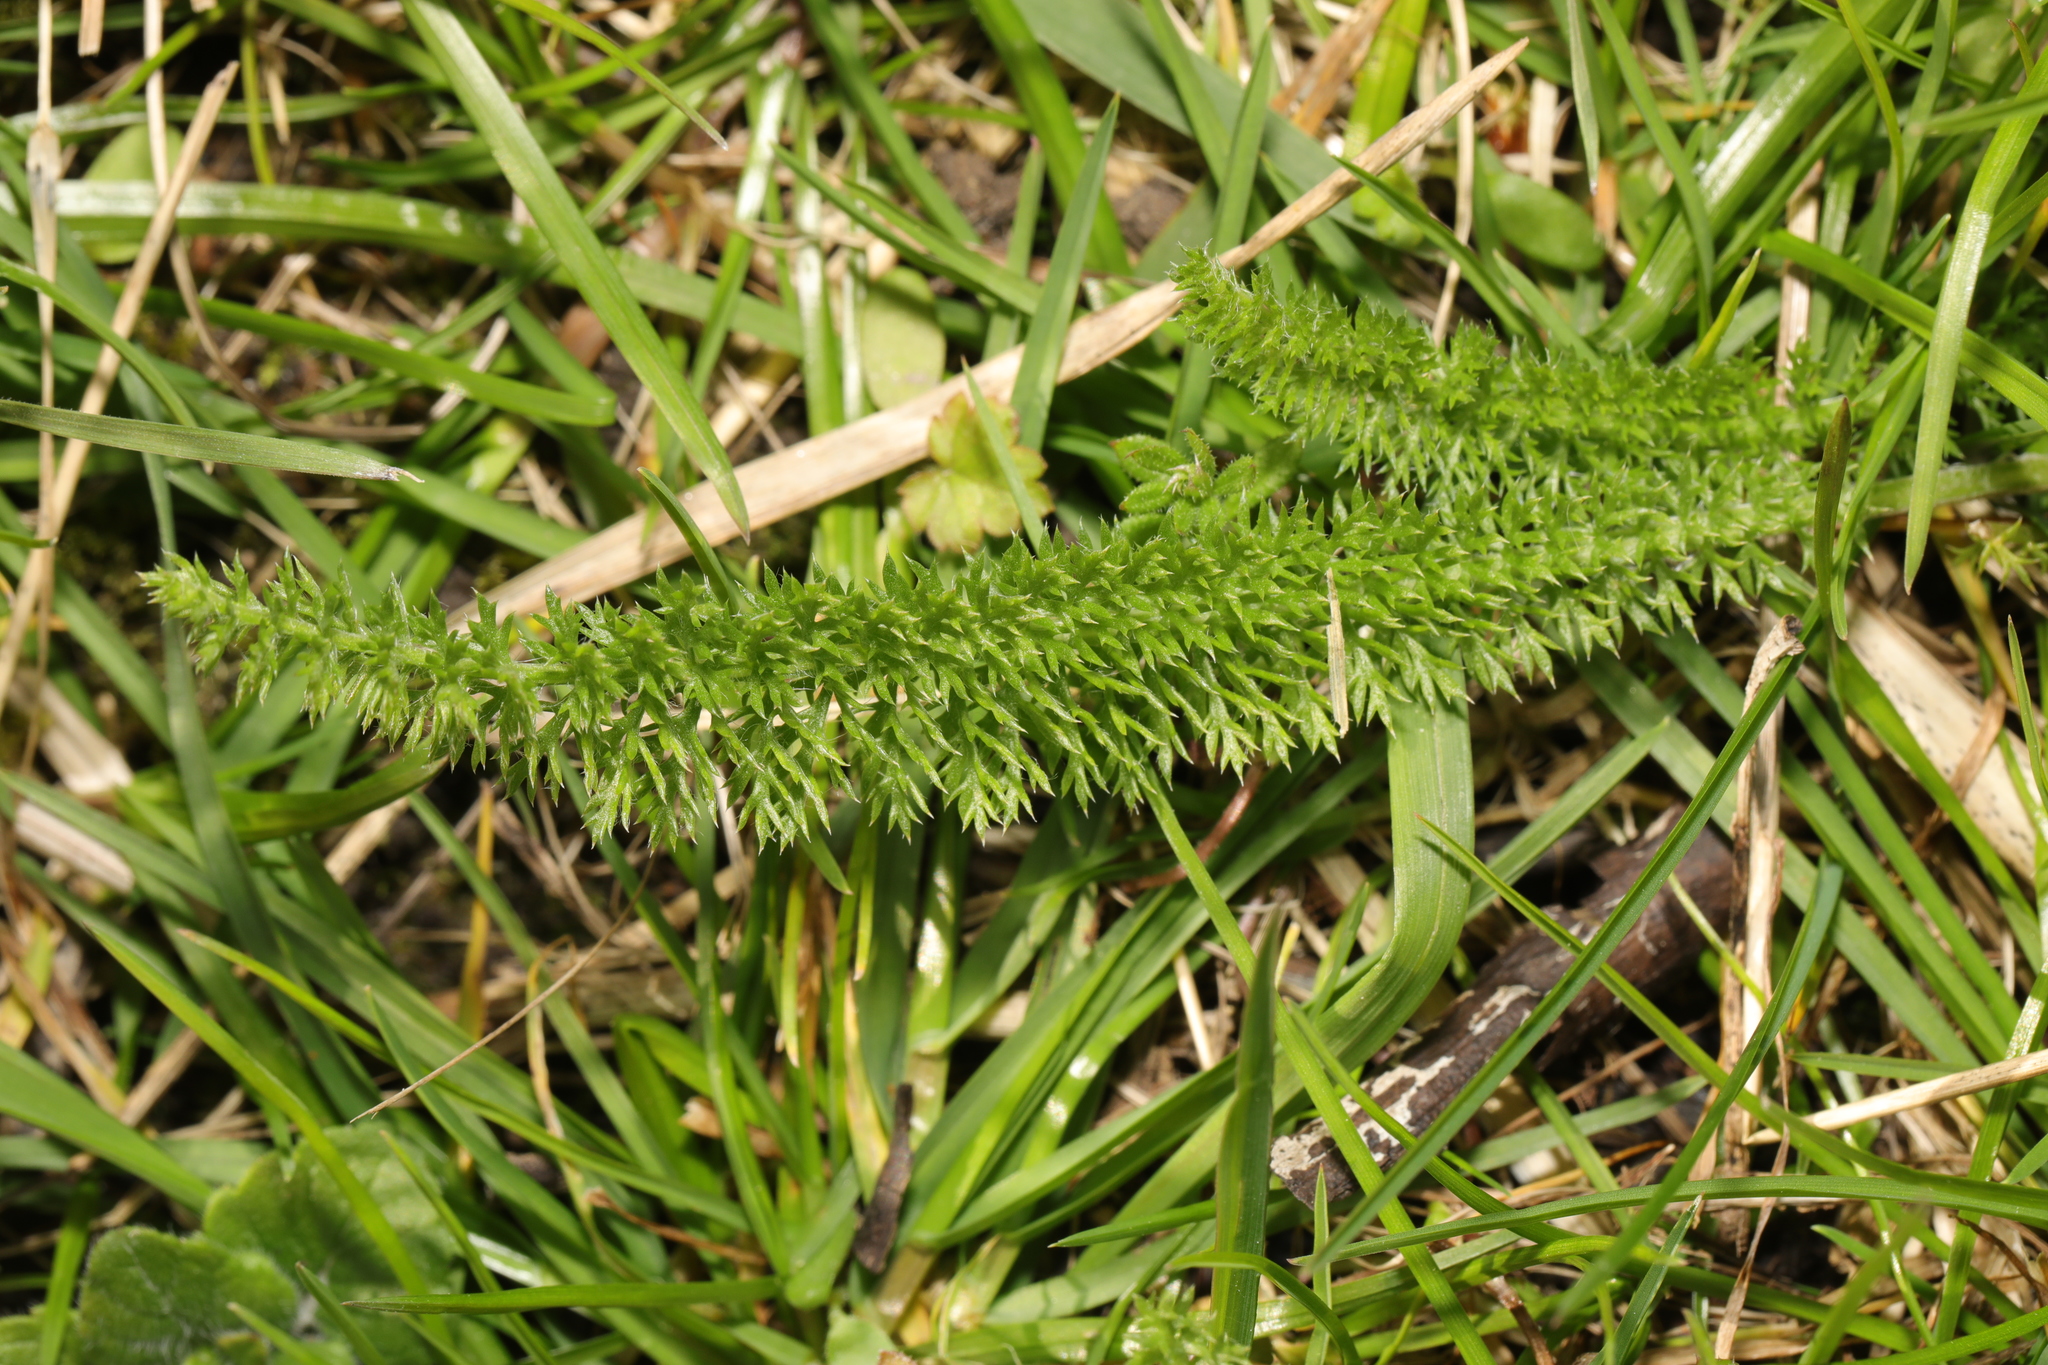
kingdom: Plantae
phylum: Tracheophyta
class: Magnoliopsida
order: Asterales
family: Asteraceae
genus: Achillea
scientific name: Achillea millefolium
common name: Yarrow
